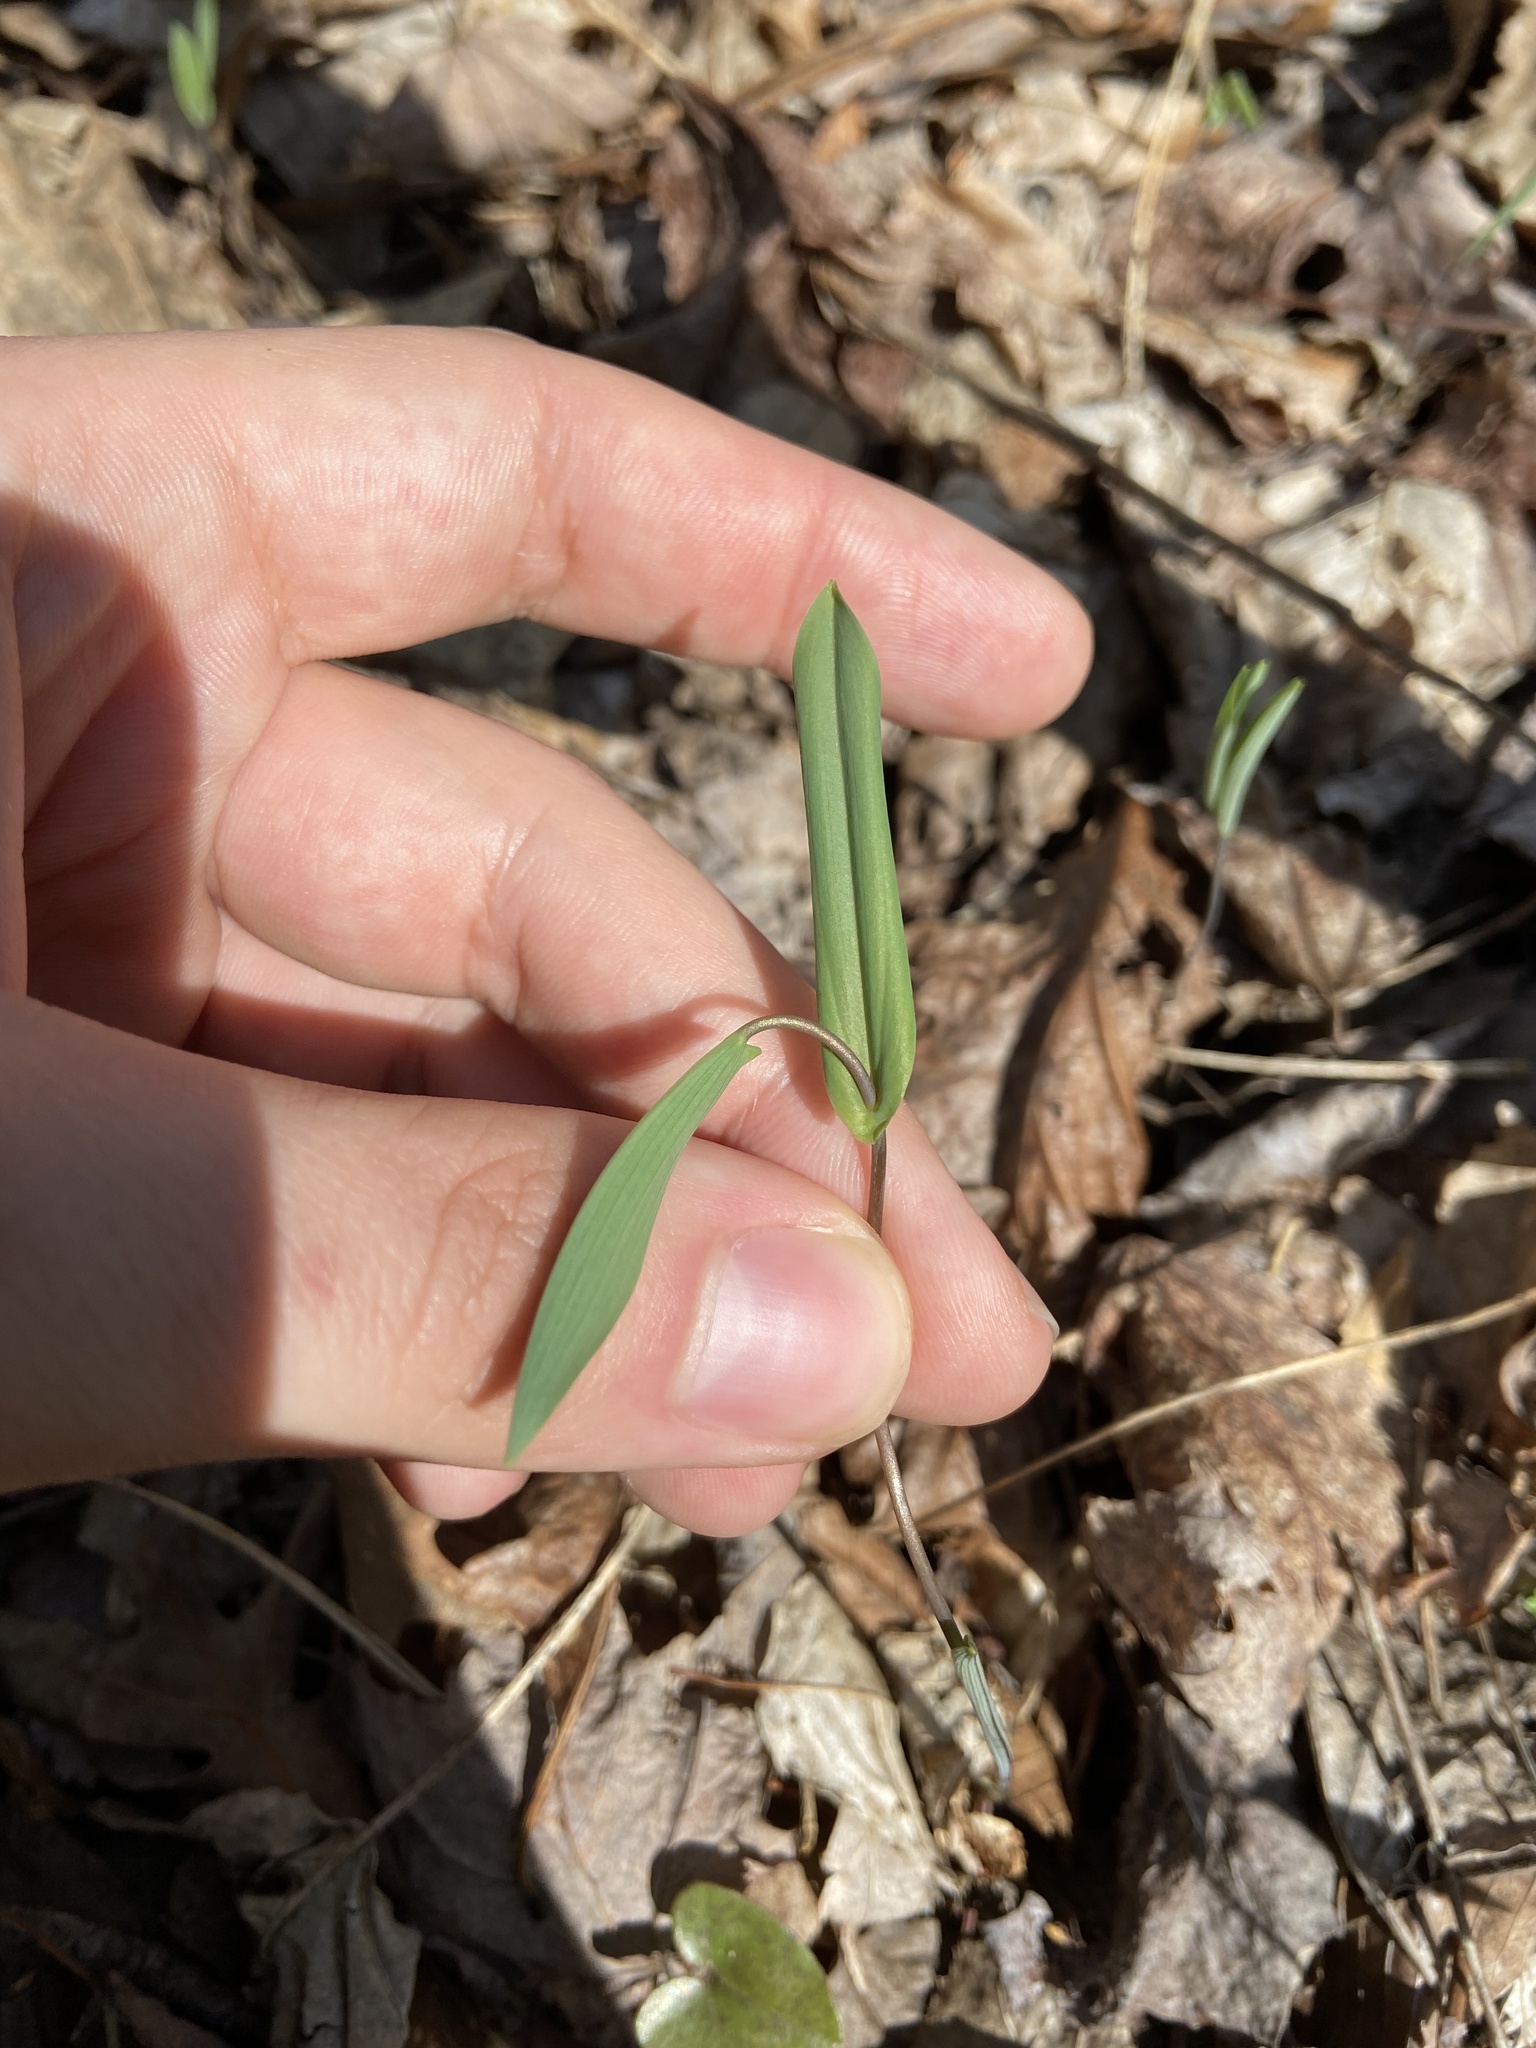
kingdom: Plantae
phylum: Tracheophyta
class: Liliopsida
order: Liliales
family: Colchicaceae
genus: Uvularia
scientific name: Uvularia perfoliata
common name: Perfoliate bellwort
